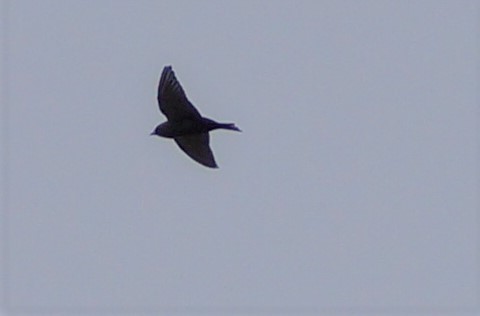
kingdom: Animalia
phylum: Chordata
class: Aves
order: Passeriformes
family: Artamidae
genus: Artamus
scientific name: Artamus cyanopterus
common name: Dusky woodswallow
